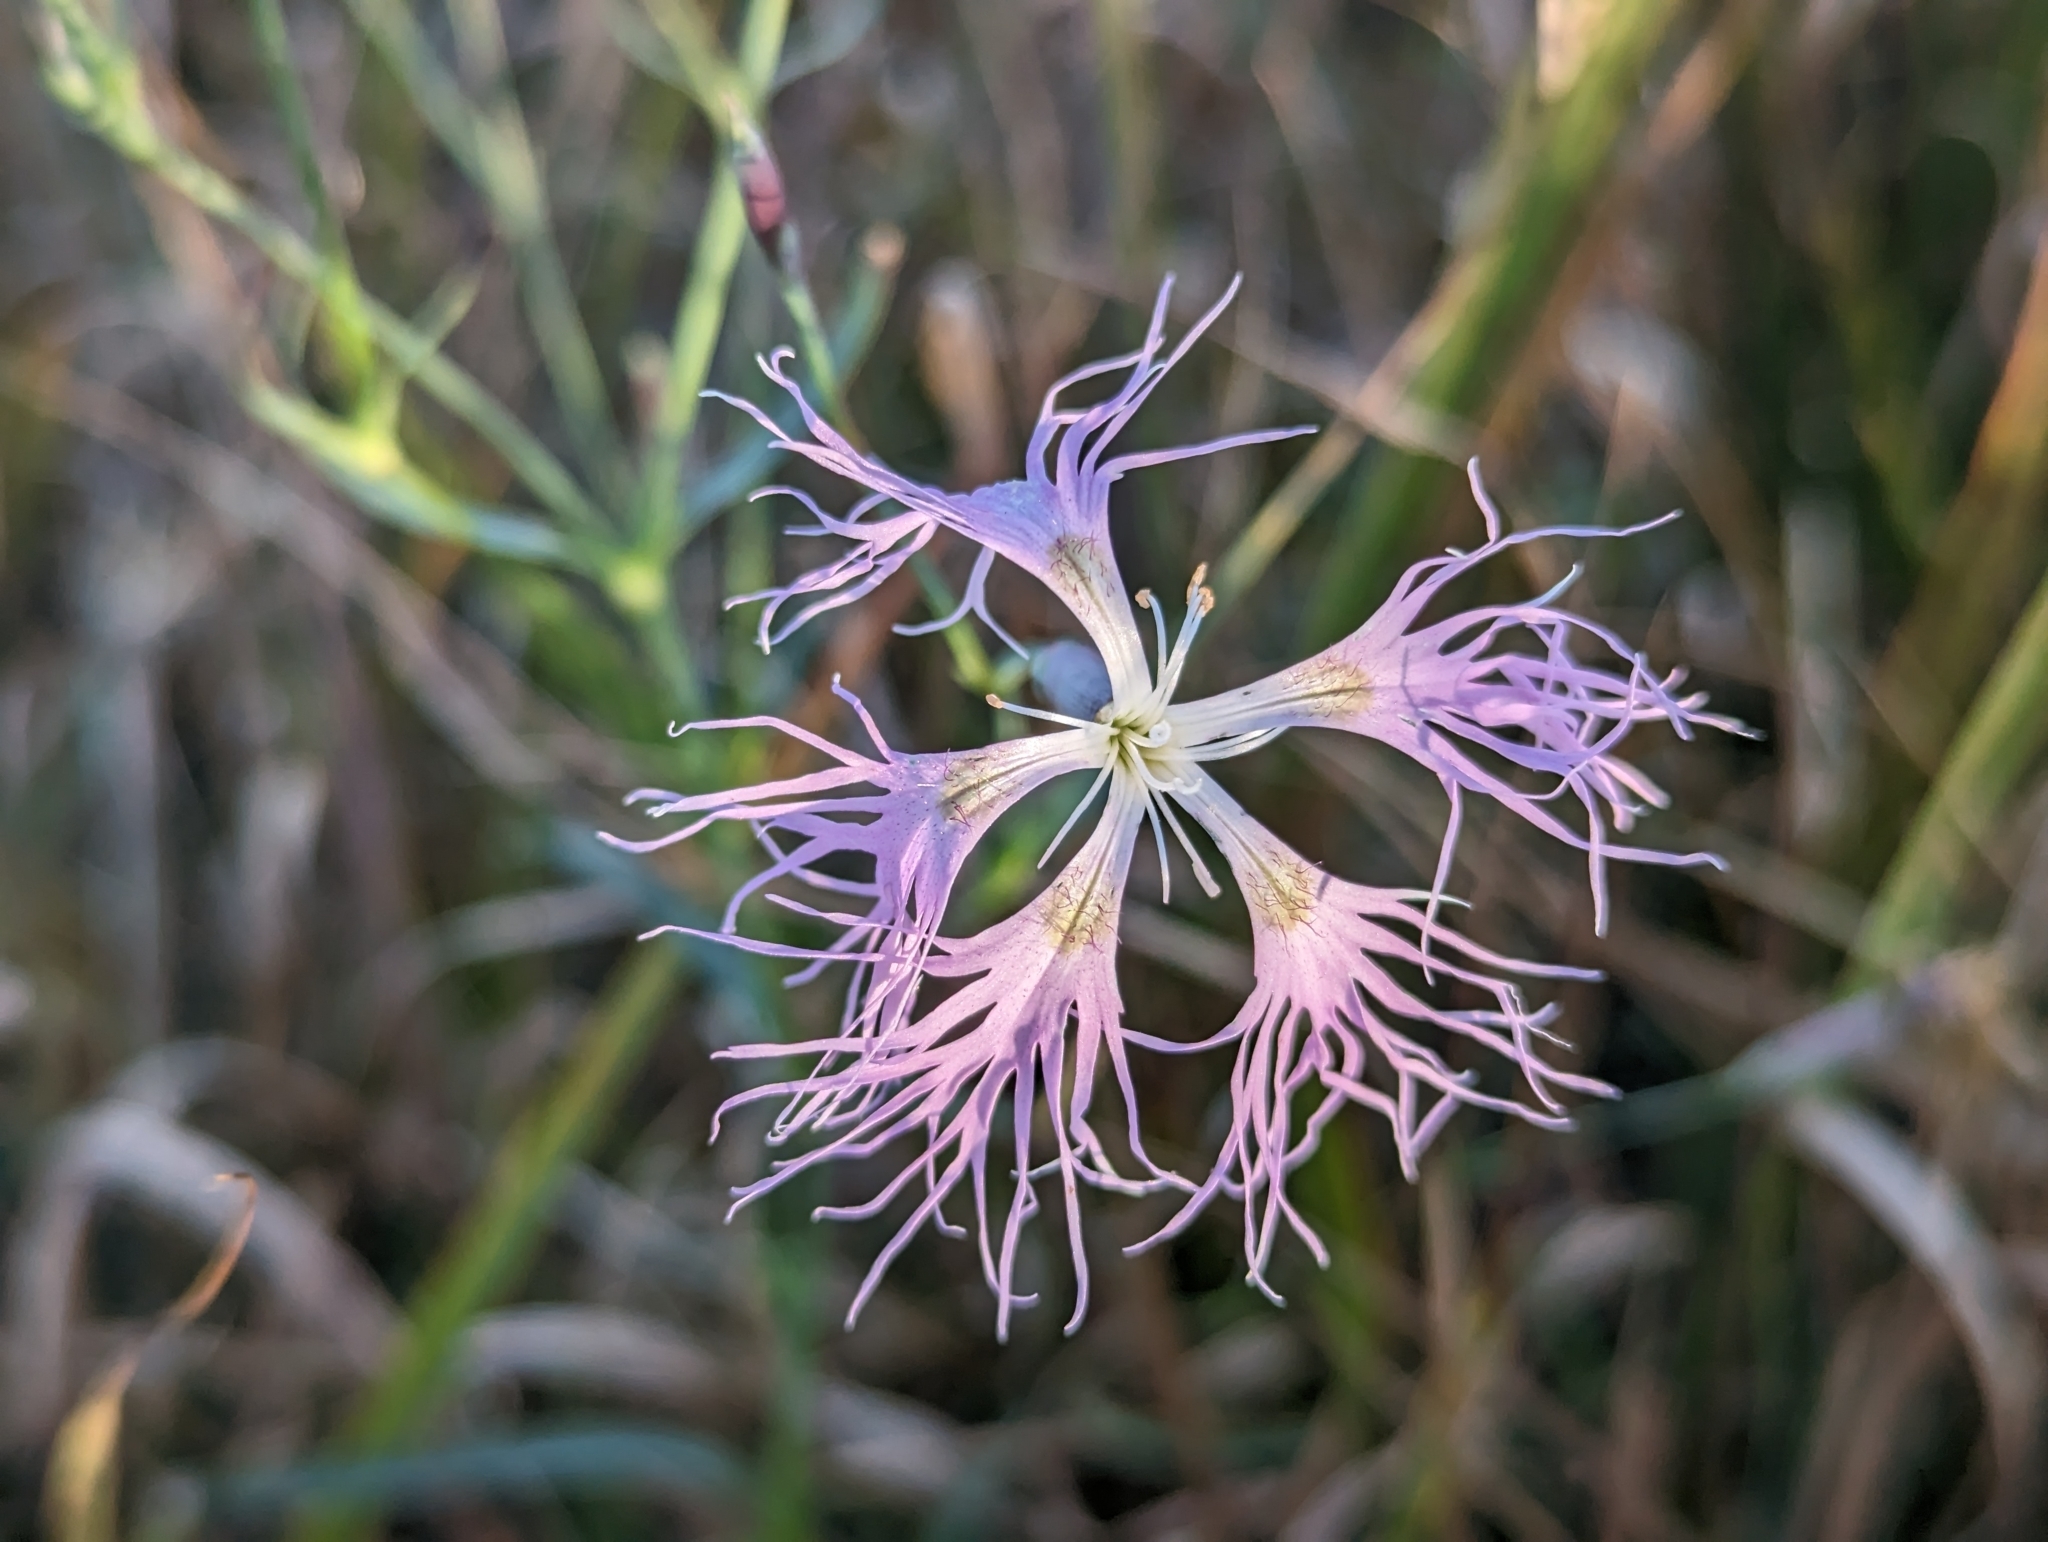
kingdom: Plantae
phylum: Tracheophyta
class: Magnoliopsida
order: Caryophyllales
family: Caryophyllaceae
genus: Dianthus
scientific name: Dianthus superbus
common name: Fringed pink
